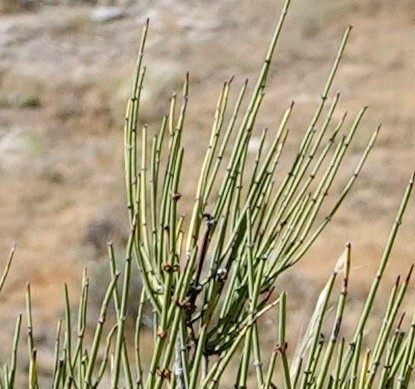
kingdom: Plantae
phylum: Tracheophyta
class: Gnetopsida
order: Ephedrales
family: Ephedraceae
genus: Ephedra
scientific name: Ephedra viridis
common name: Green ephedra
